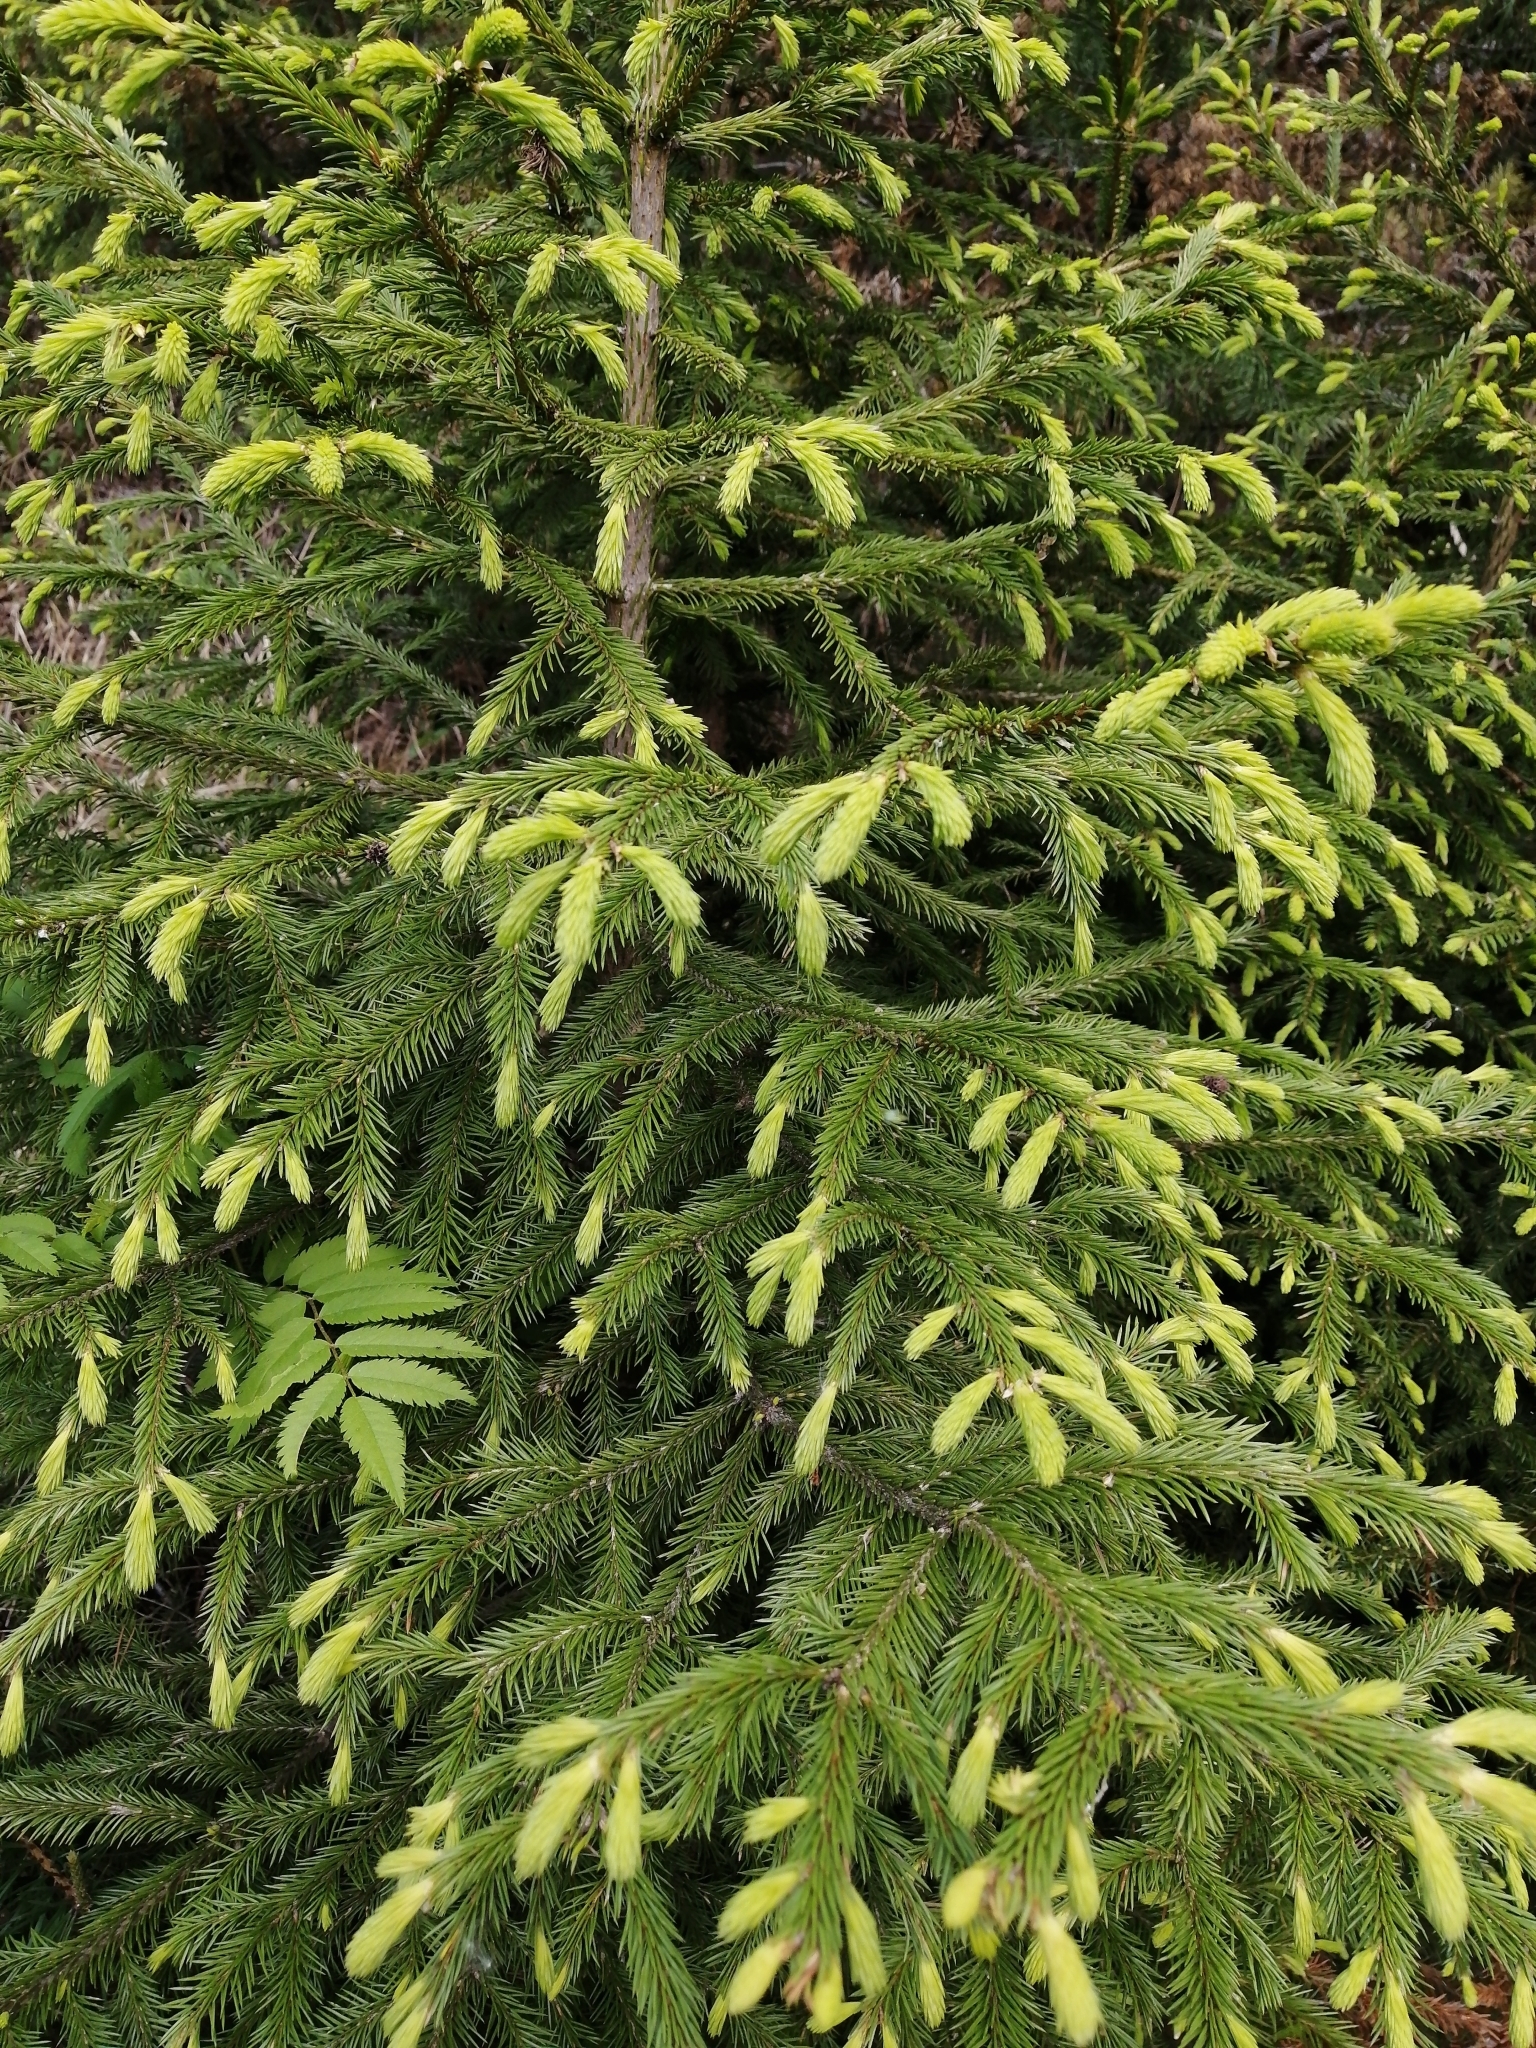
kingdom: Plantae
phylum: Tracheophyta
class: Pinopsida
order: Pinales
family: Pinaceae
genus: Picea
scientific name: Picea obovata
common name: Siberian spruce
